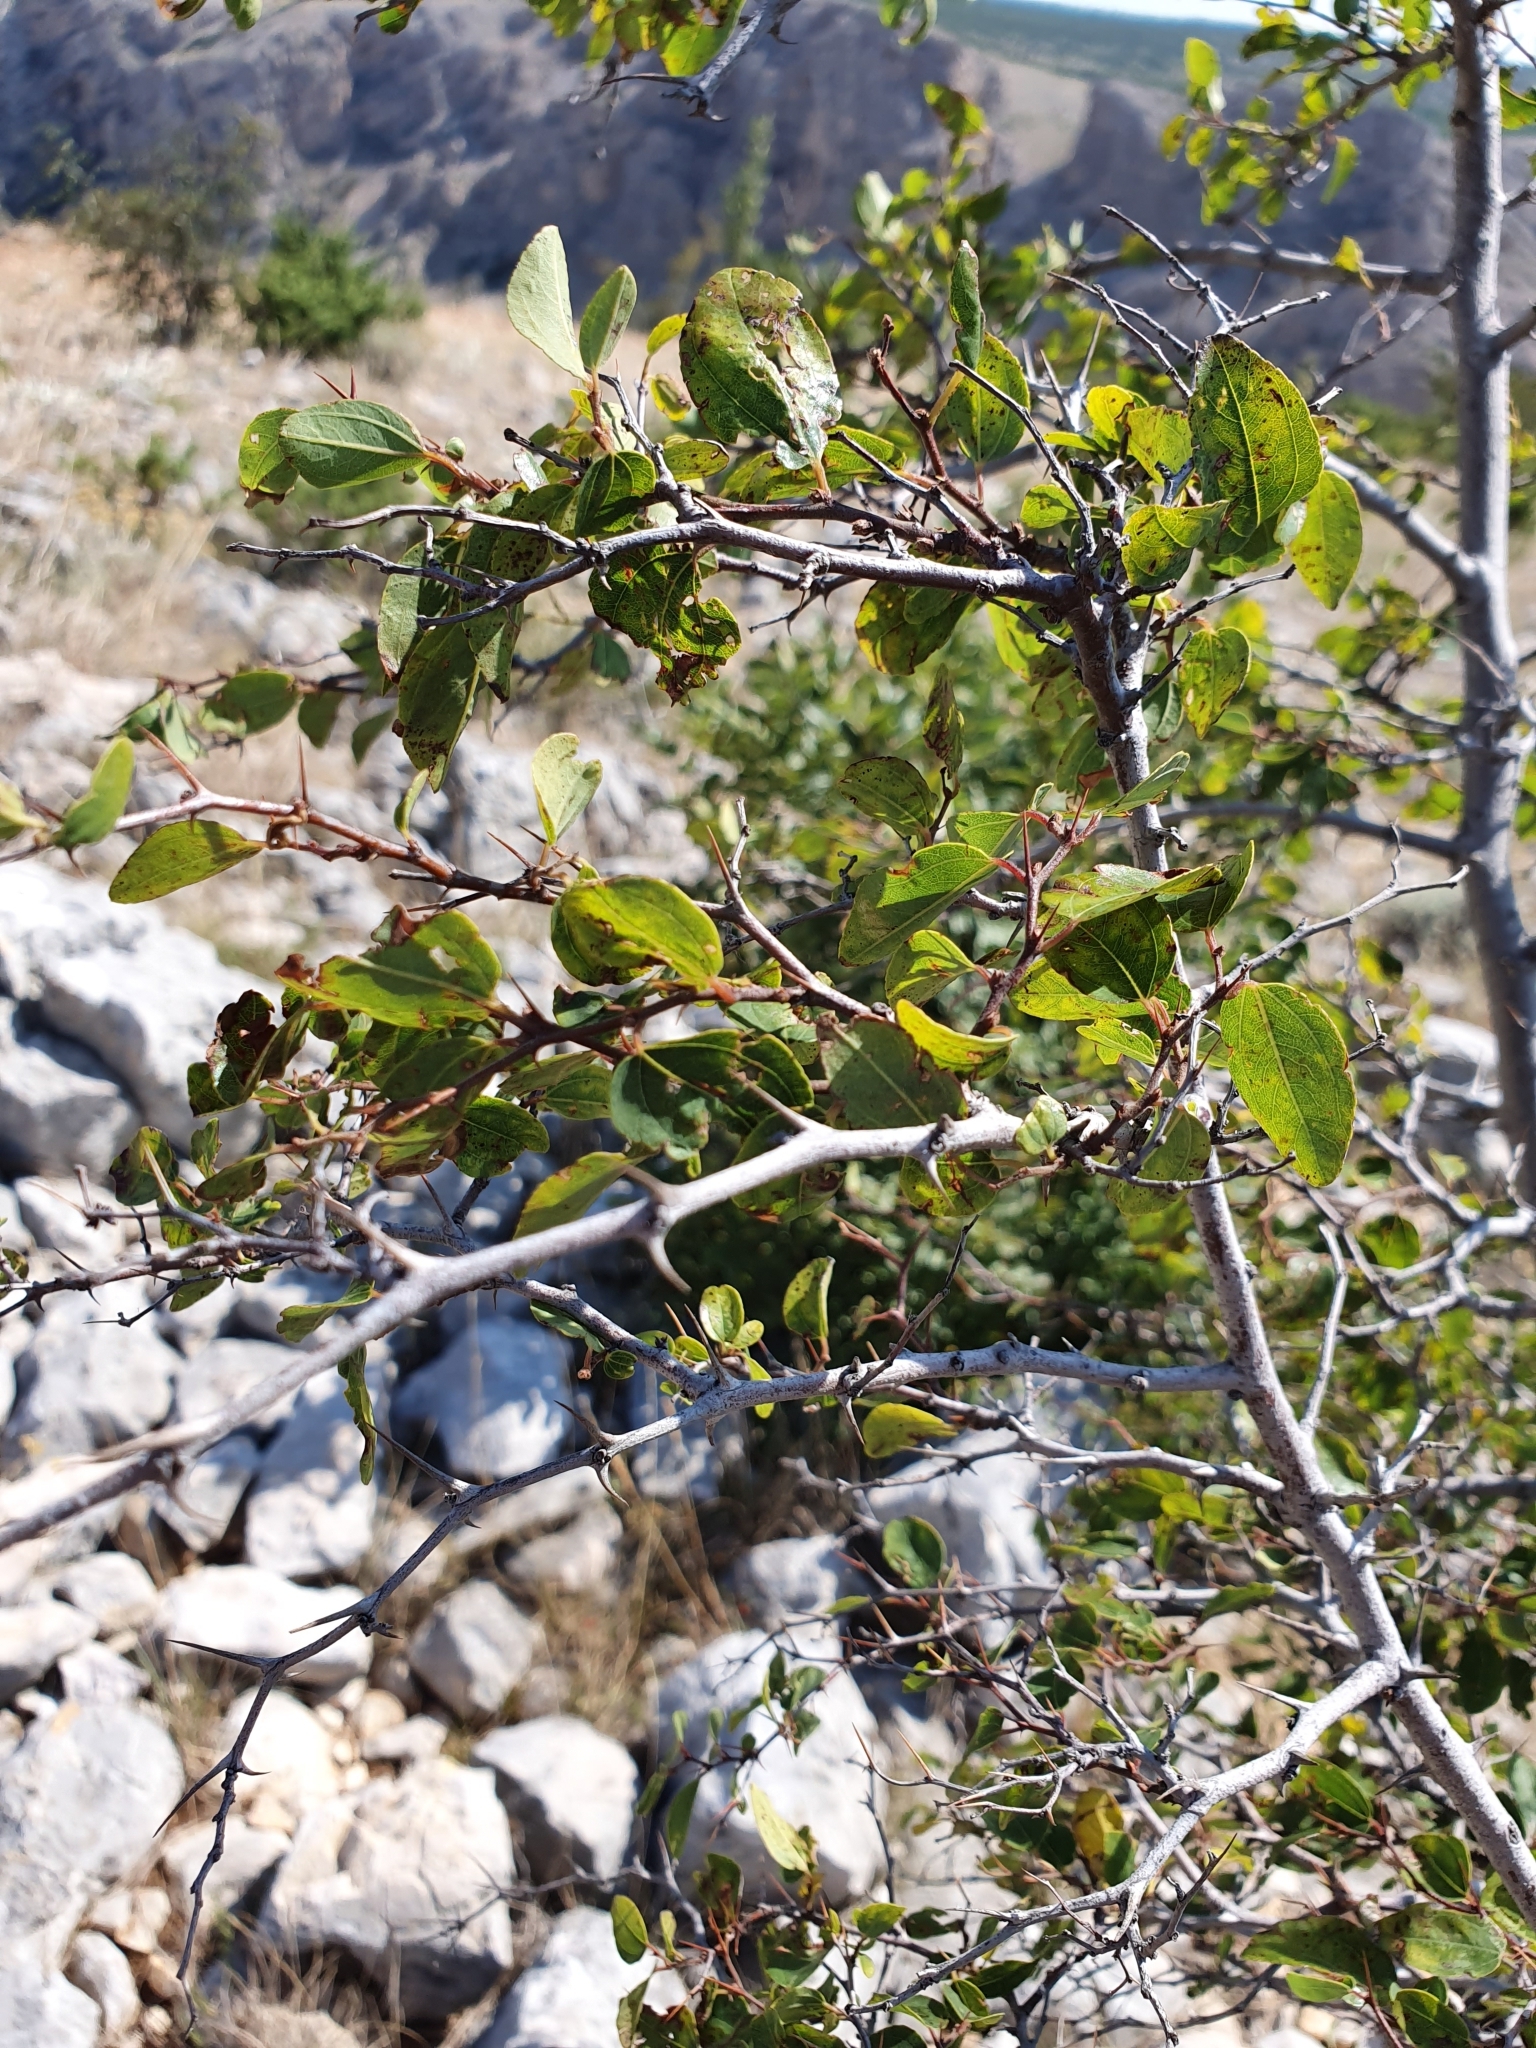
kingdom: Plantae
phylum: Tracheophyta
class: Magnoliopsida
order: Rosales
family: Rhamnaceae
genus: Paliurus
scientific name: Paliurus spina-christi
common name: Jeruselem thorn
